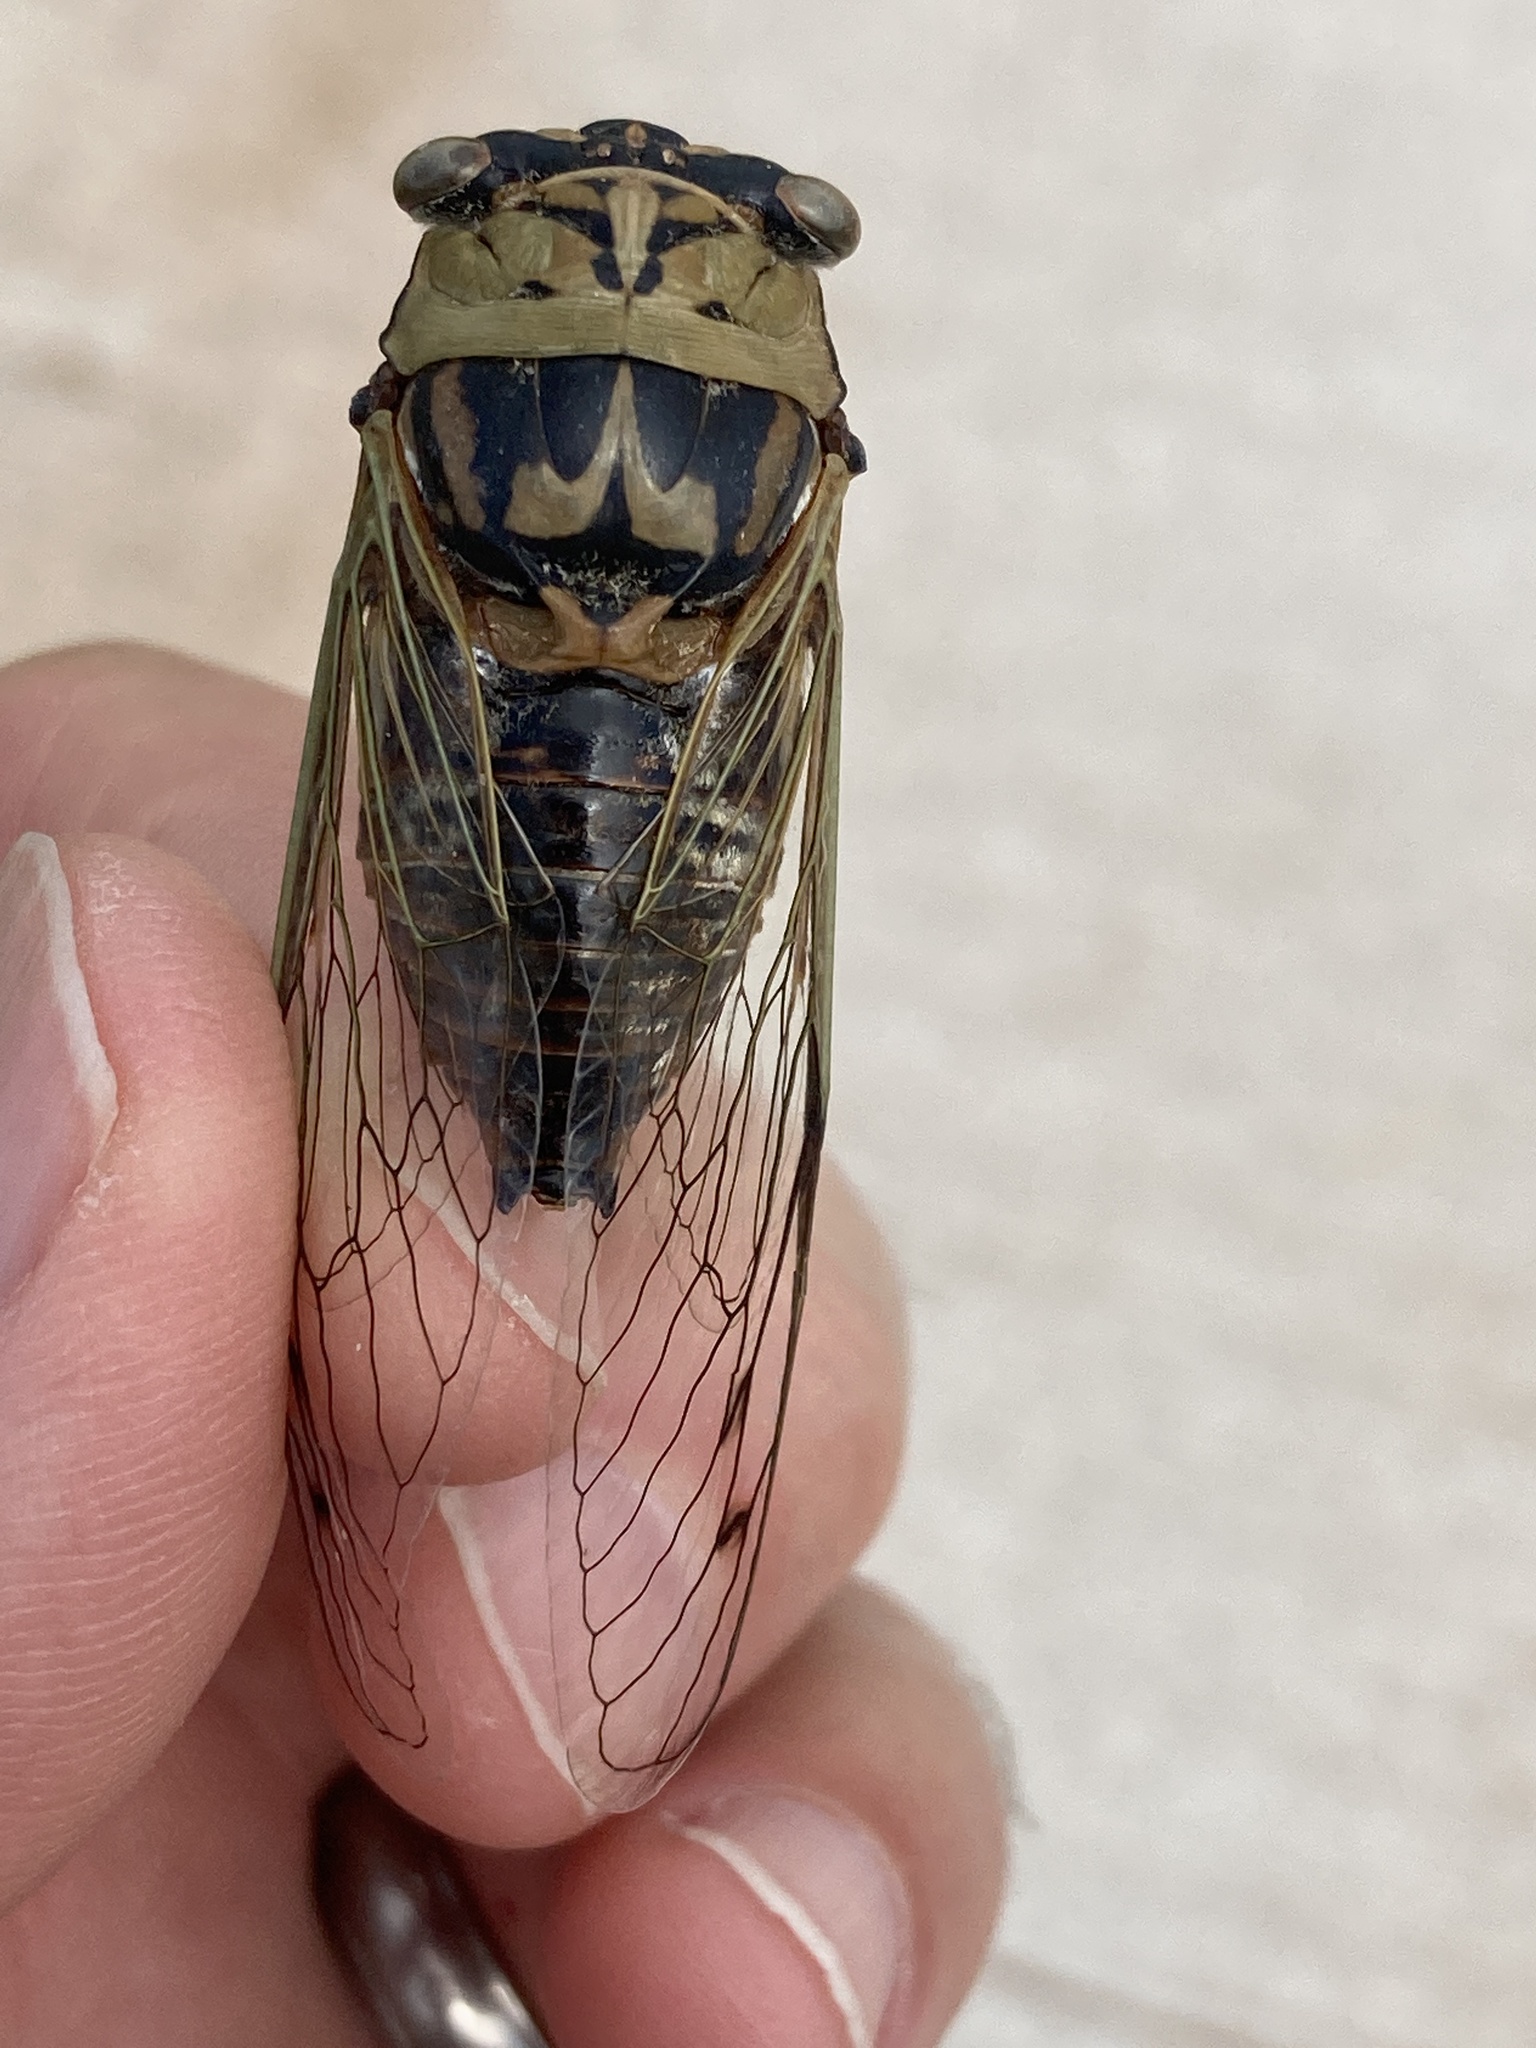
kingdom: Animalia
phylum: Arthropoda
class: Insecta
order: Hemiptera
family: Cicadidae
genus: Megatibicen
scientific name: Megatibicen resh
